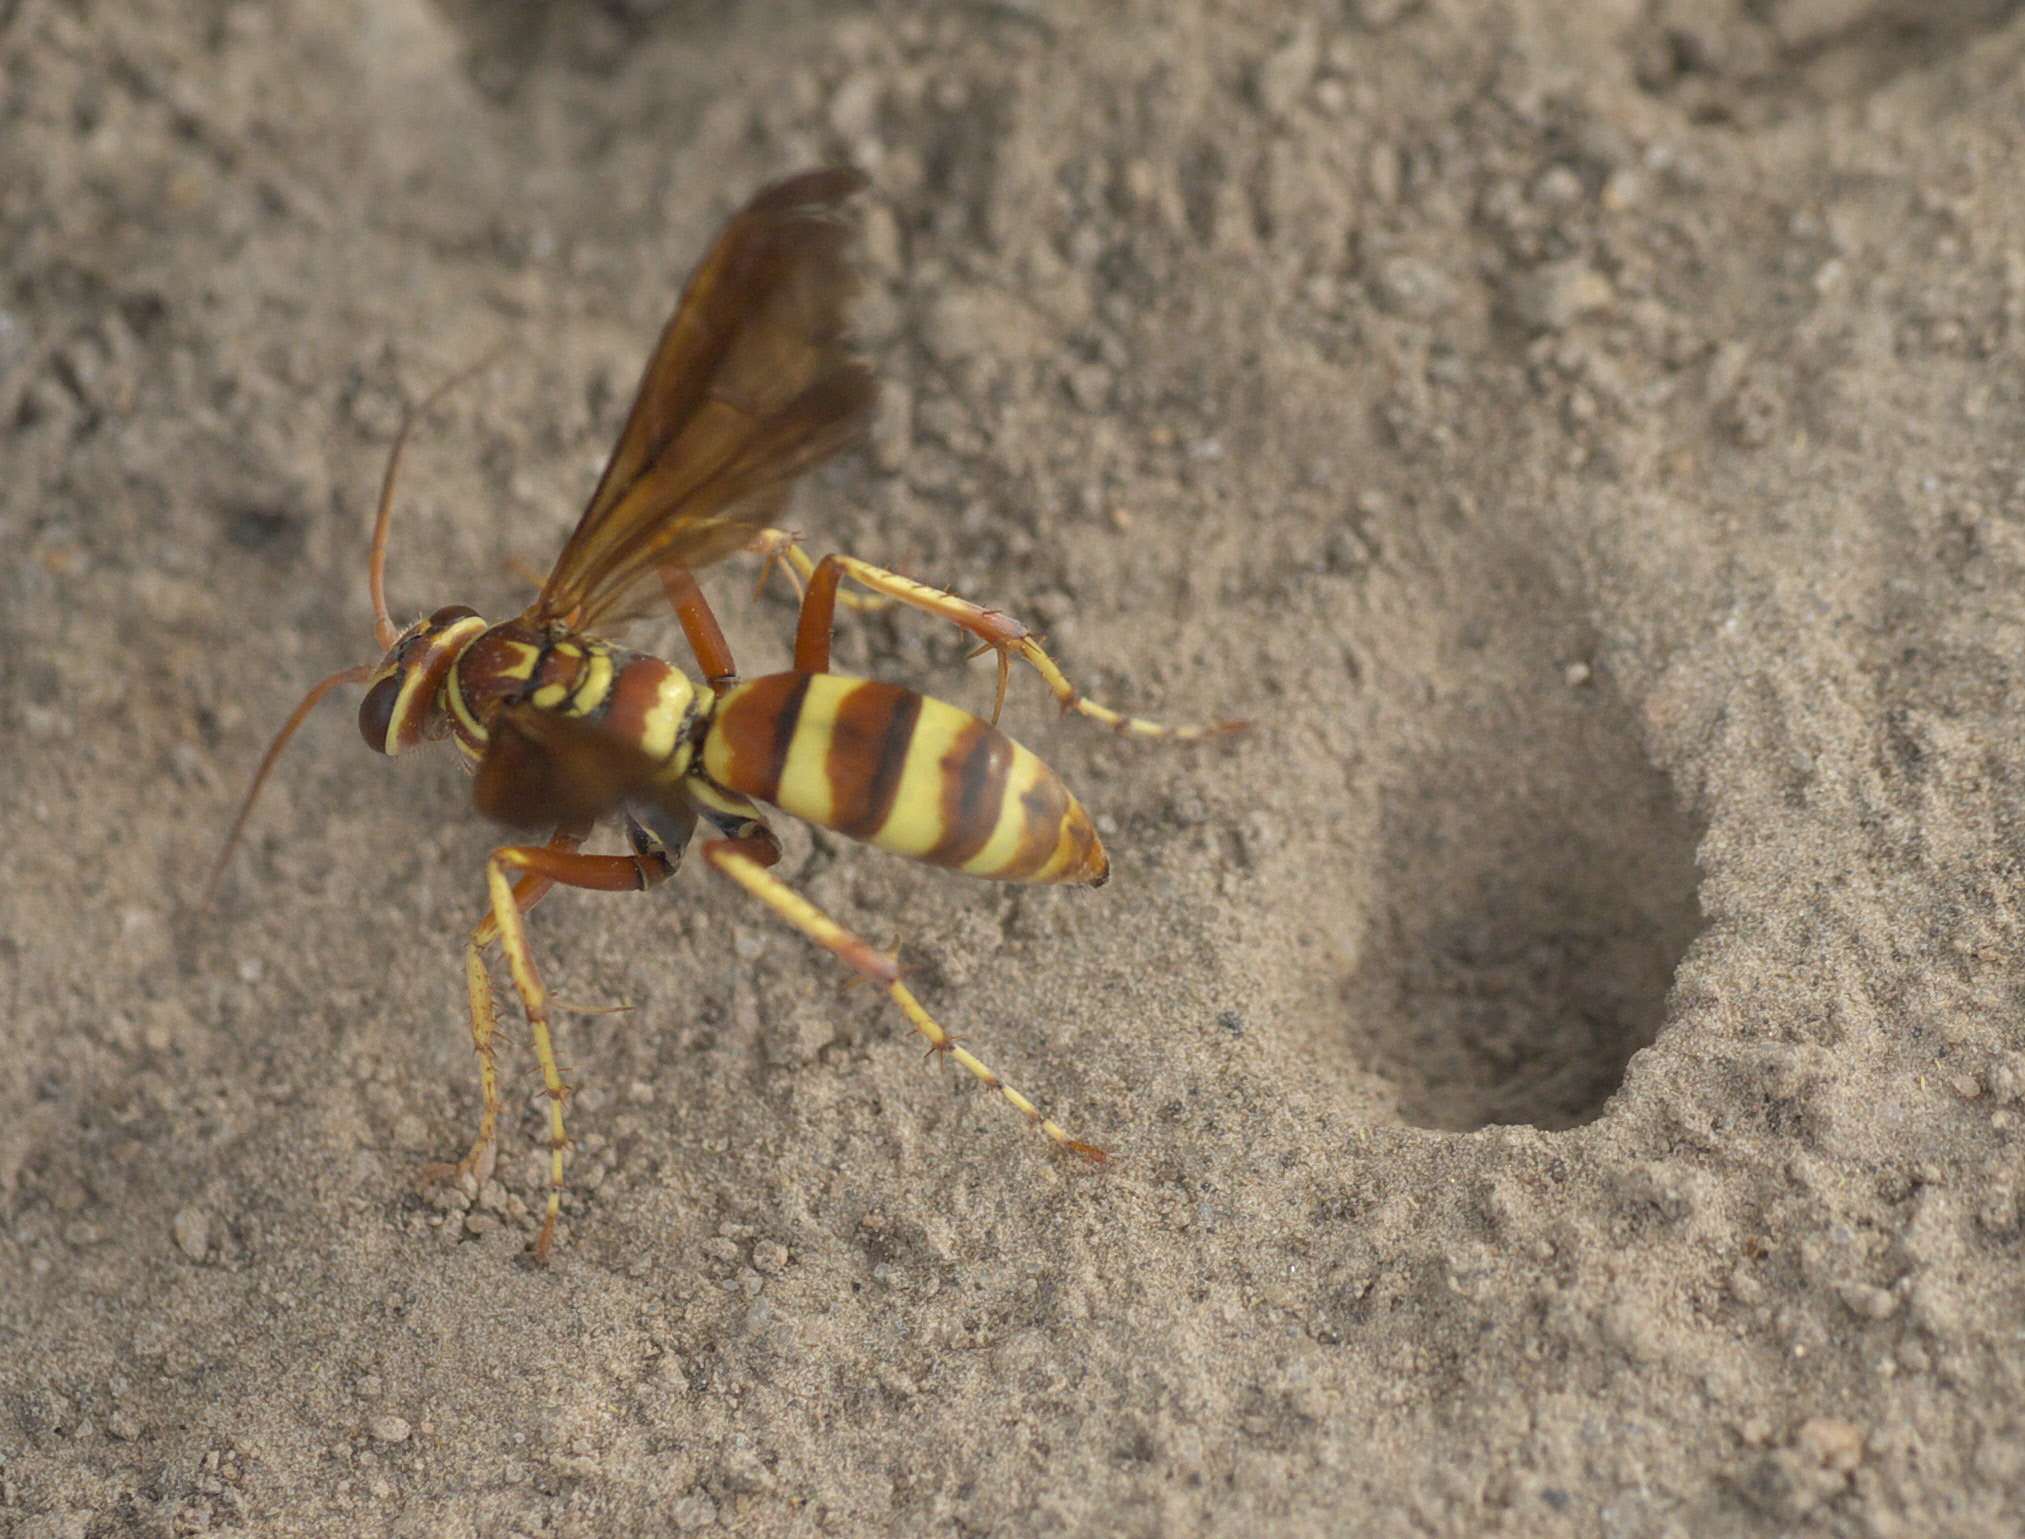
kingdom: Animalia
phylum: Arthropoda
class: Insecta
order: Hymenoptera
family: Pompilidae
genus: Poecilopompilus
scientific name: Poecilopompilus interruptus
